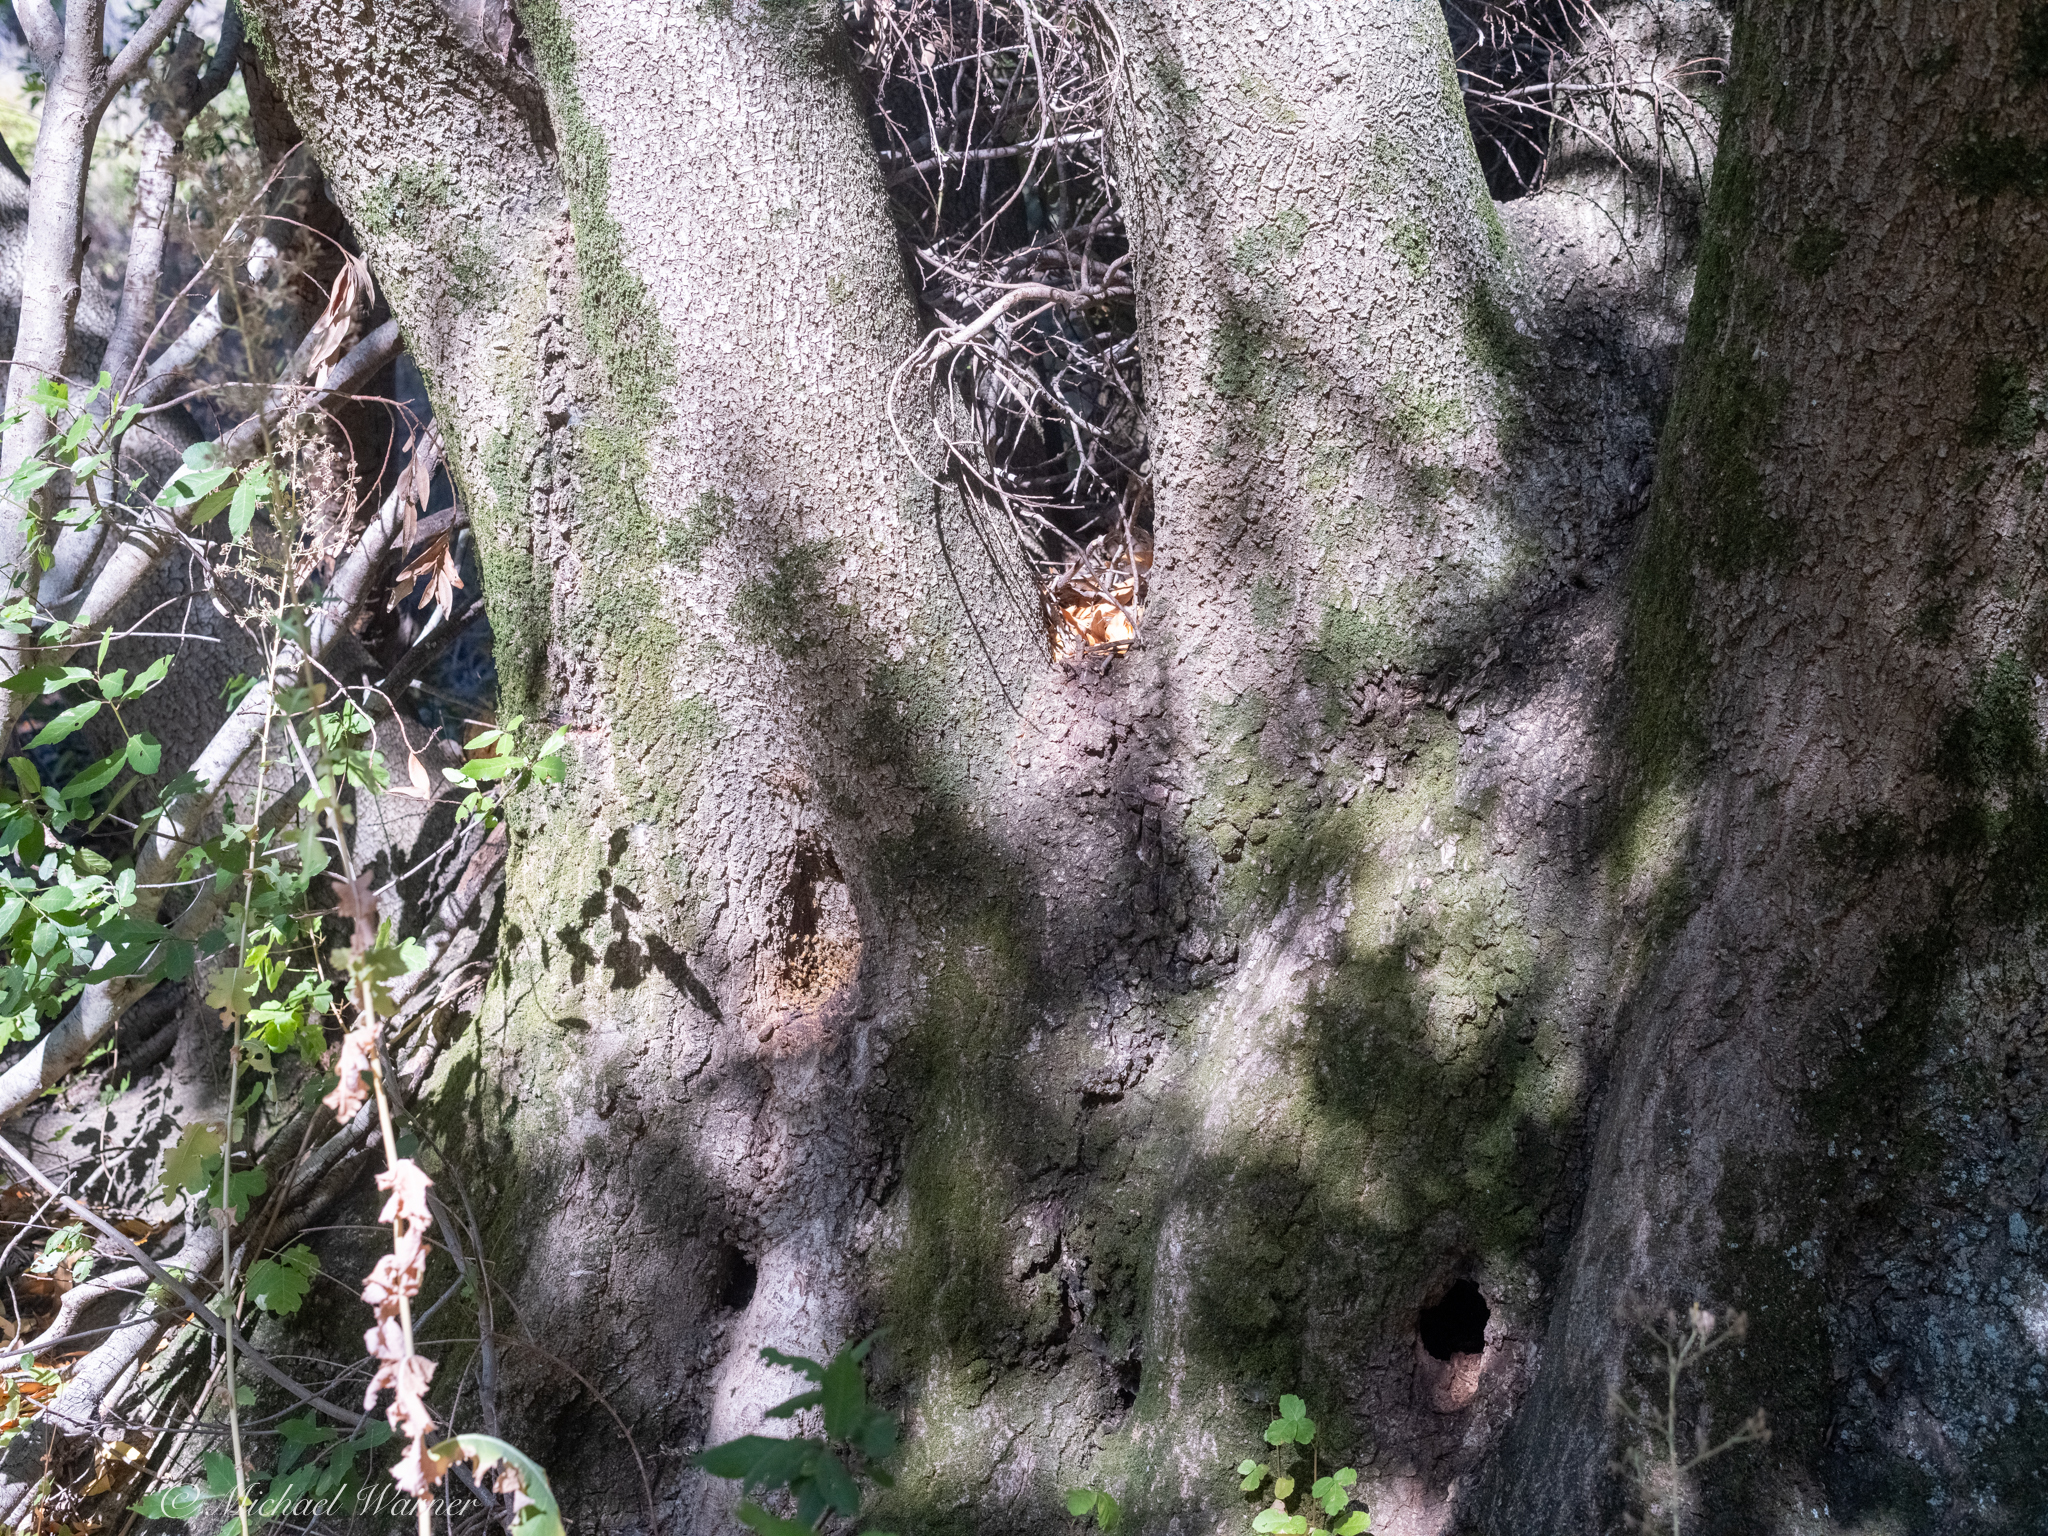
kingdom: Animalia
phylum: Arthropoda
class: Insecta
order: Hymenoptera
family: Apidae
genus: Apis
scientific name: Apis mellifera
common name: Honey bee
